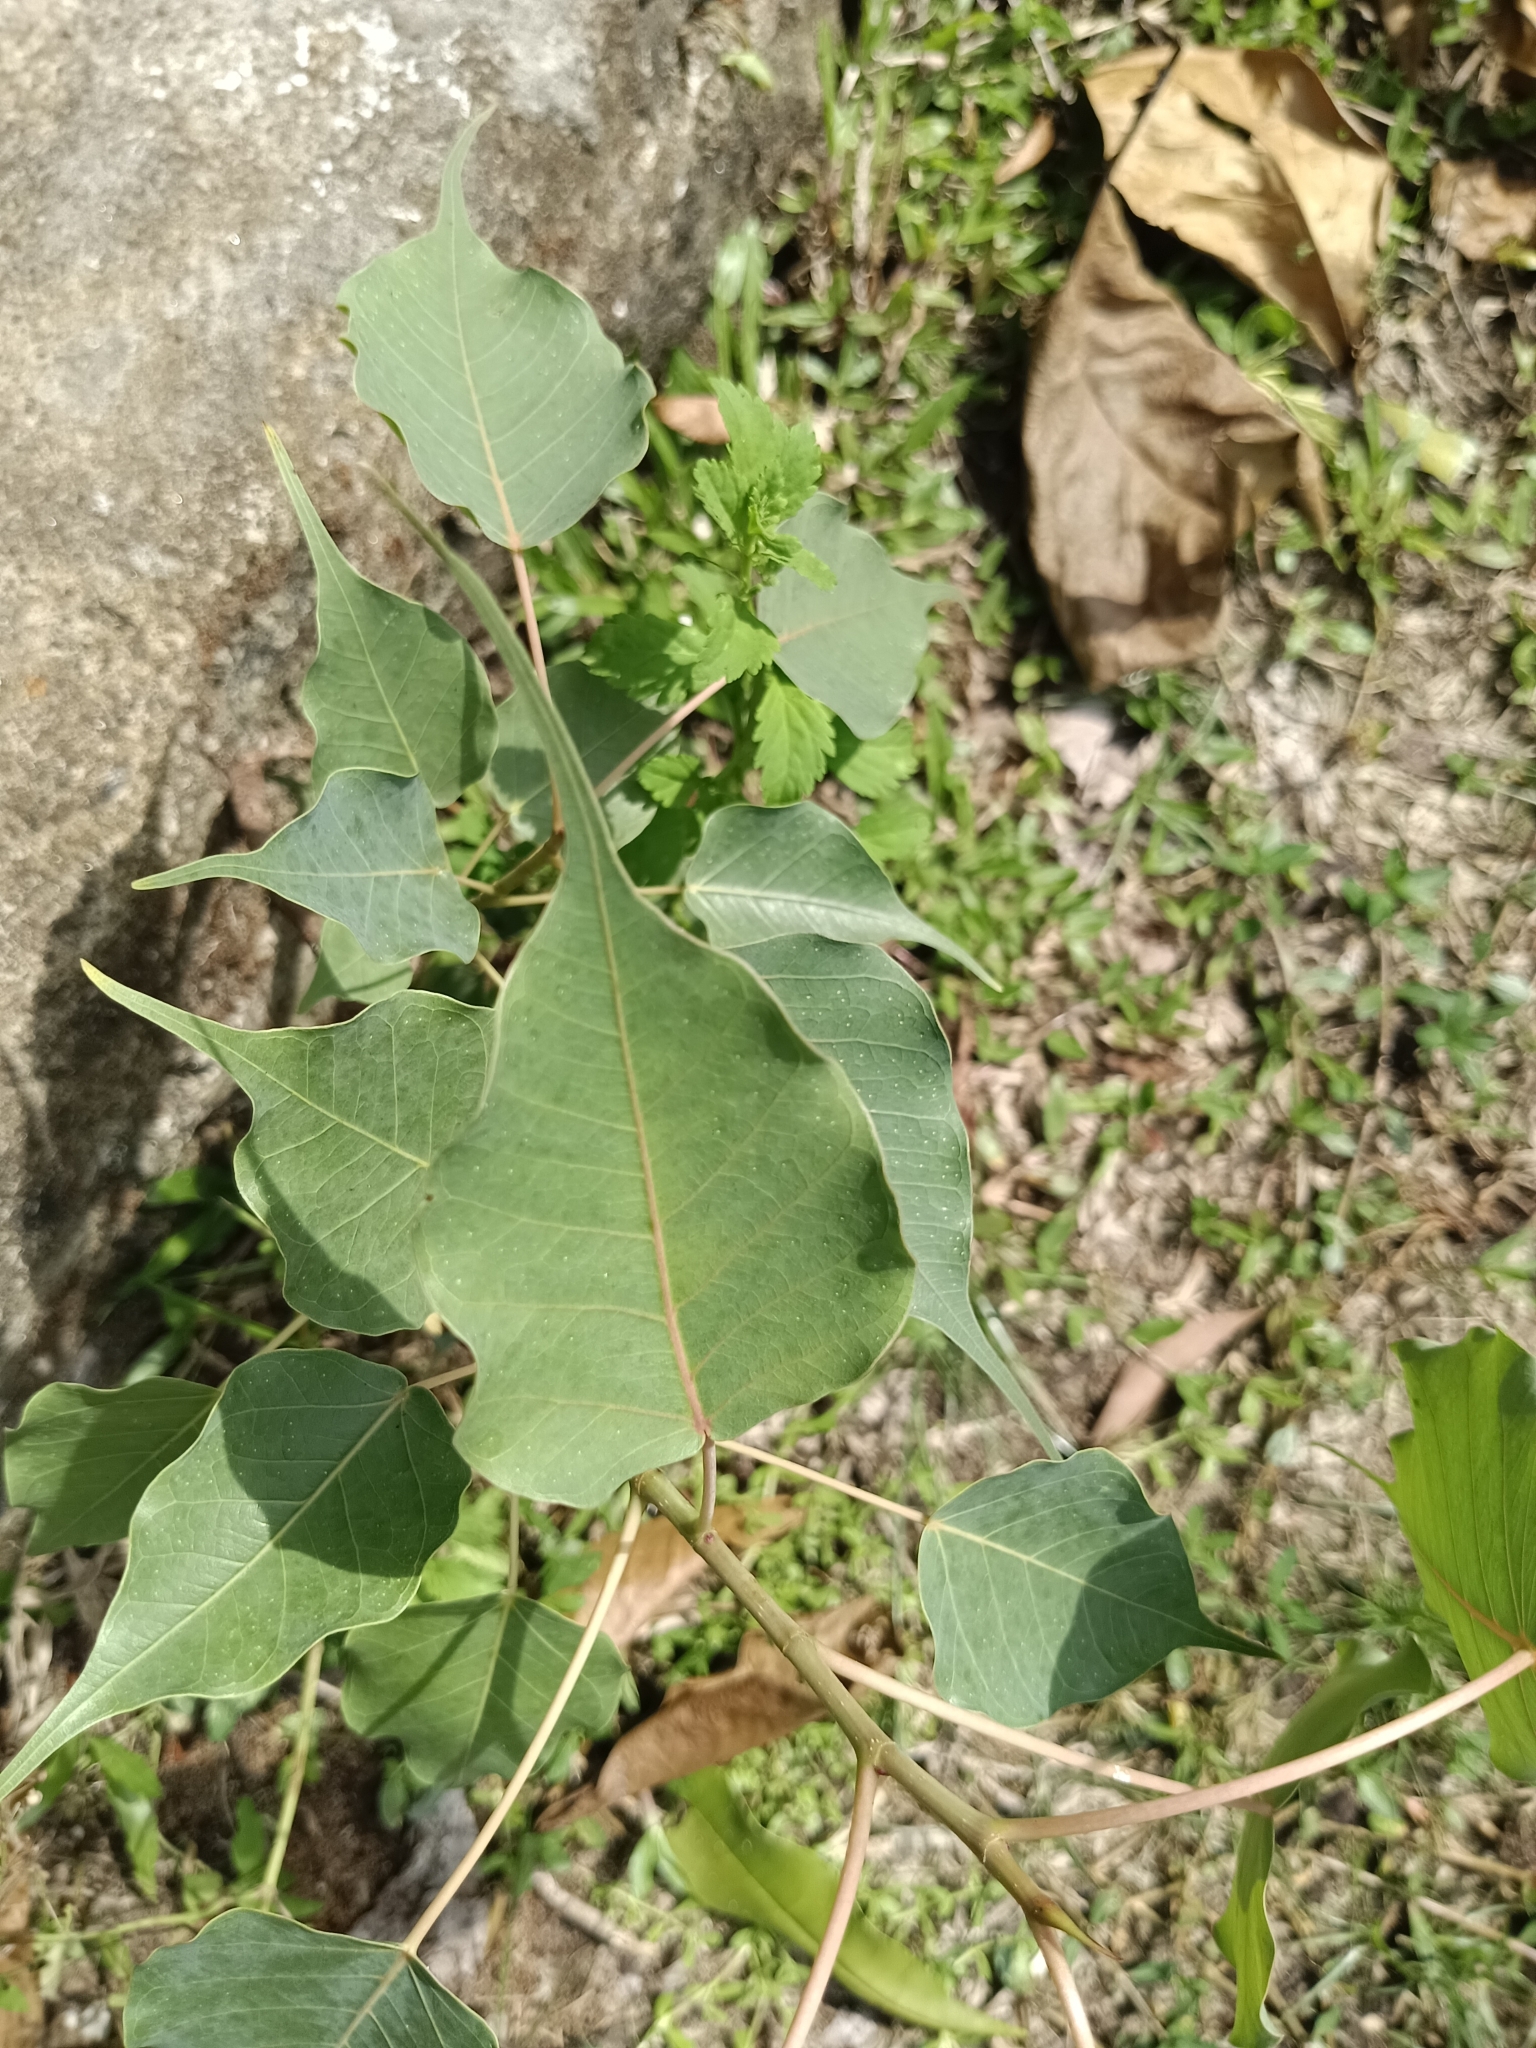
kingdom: Plantae
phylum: Tracheophyta
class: Magnoliopsida
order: Rosales
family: Moraceae
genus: Ficus
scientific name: Ficus religiosa
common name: Bodhi tree
